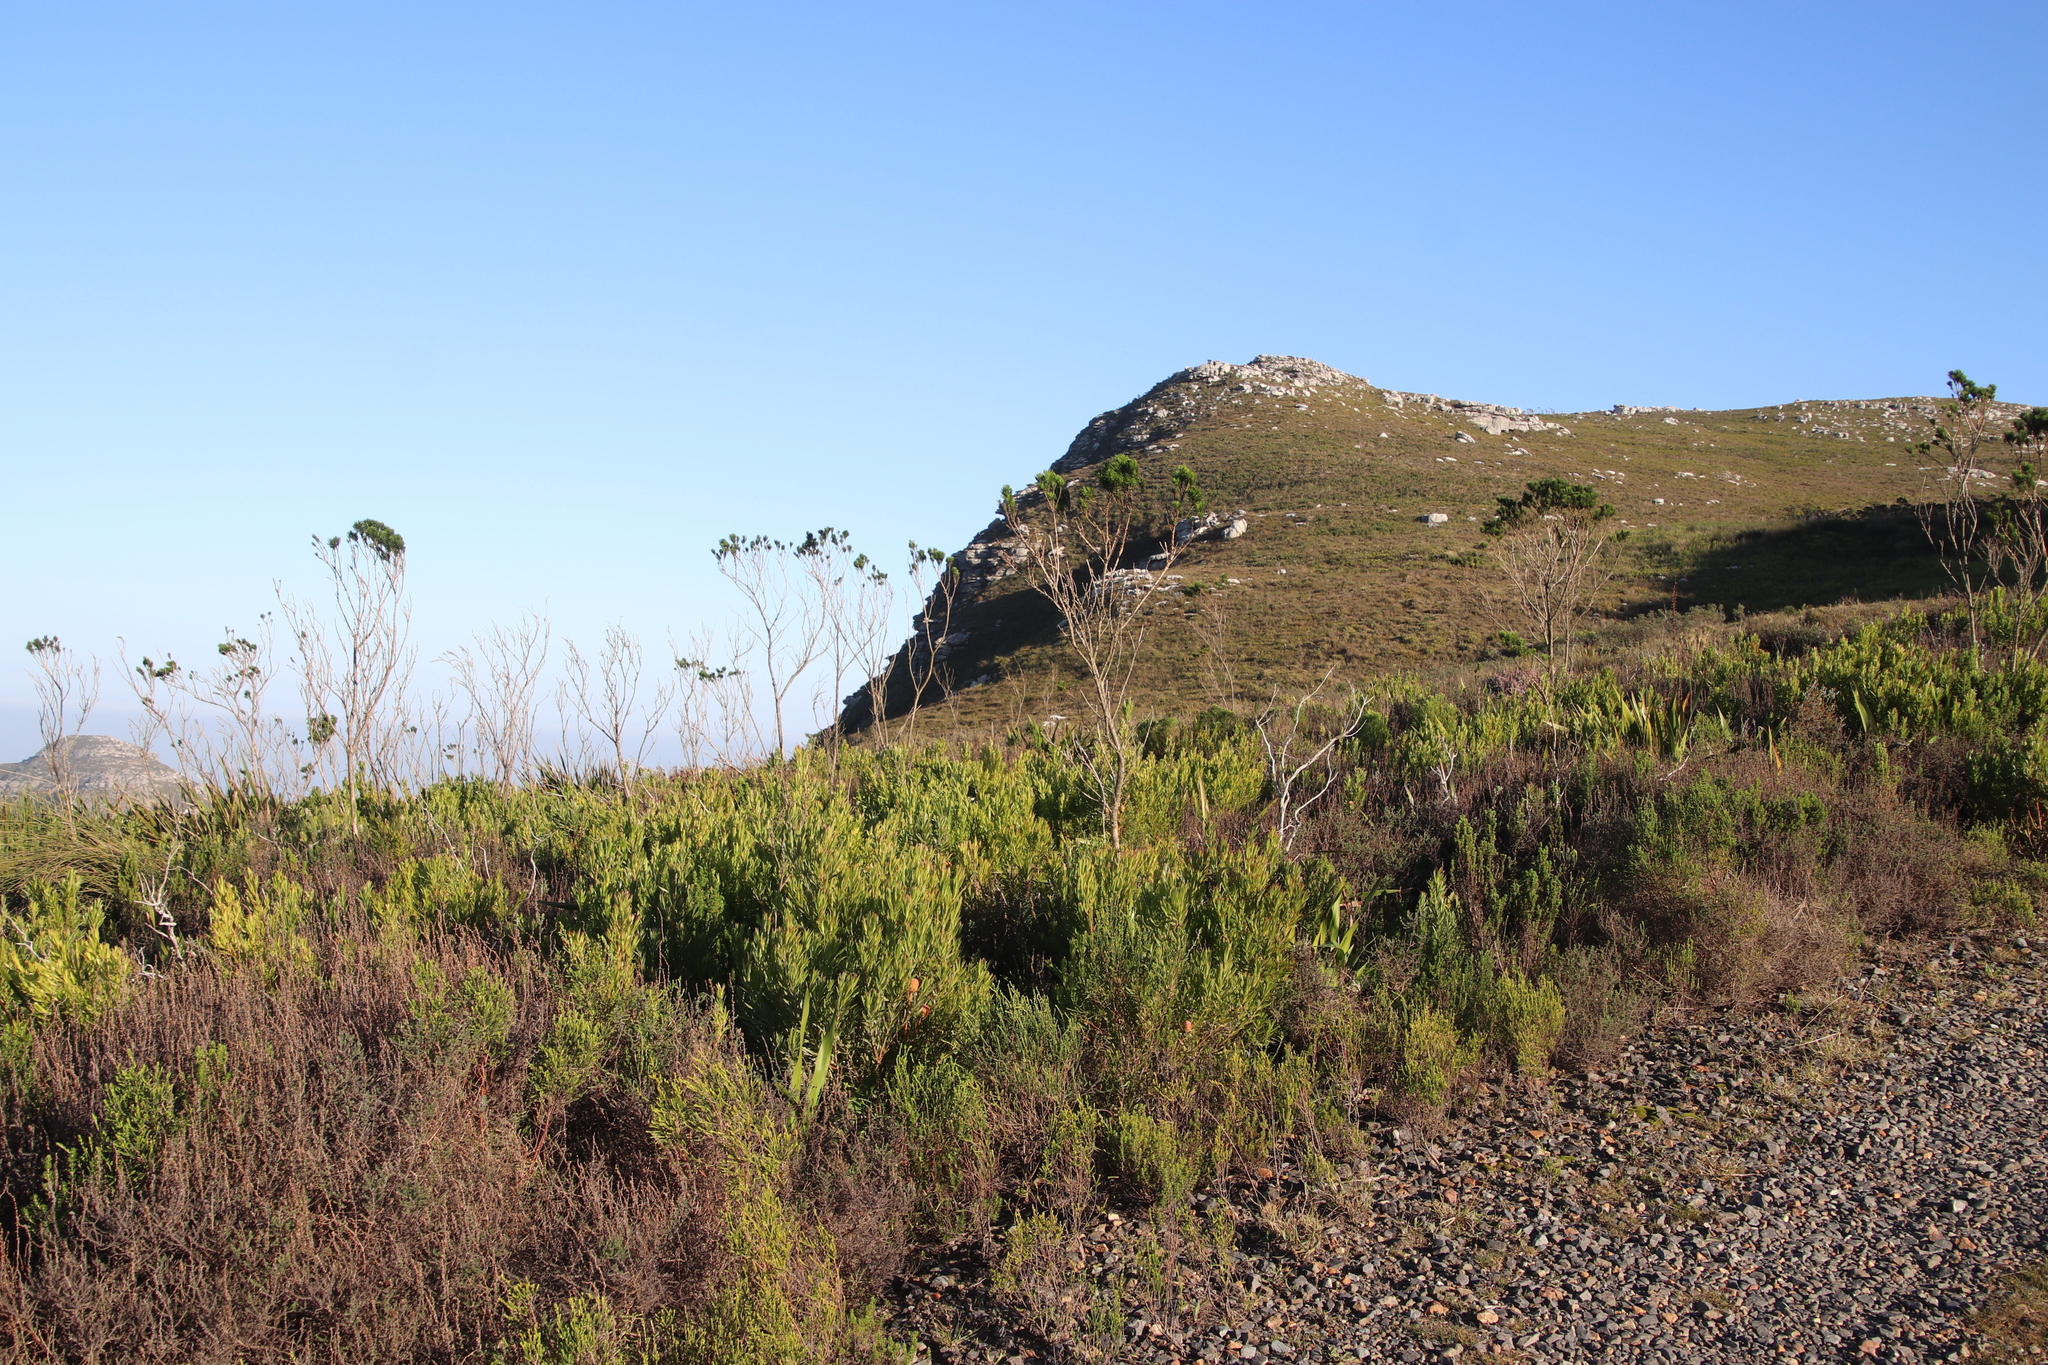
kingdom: Plantae
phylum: Tracheophyta
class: Magnoliopsida
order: Proteales
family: Proteaceae
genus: Leucadendron
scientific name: Leucadendron xanthoconus
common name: Sickle-leaf conebush
